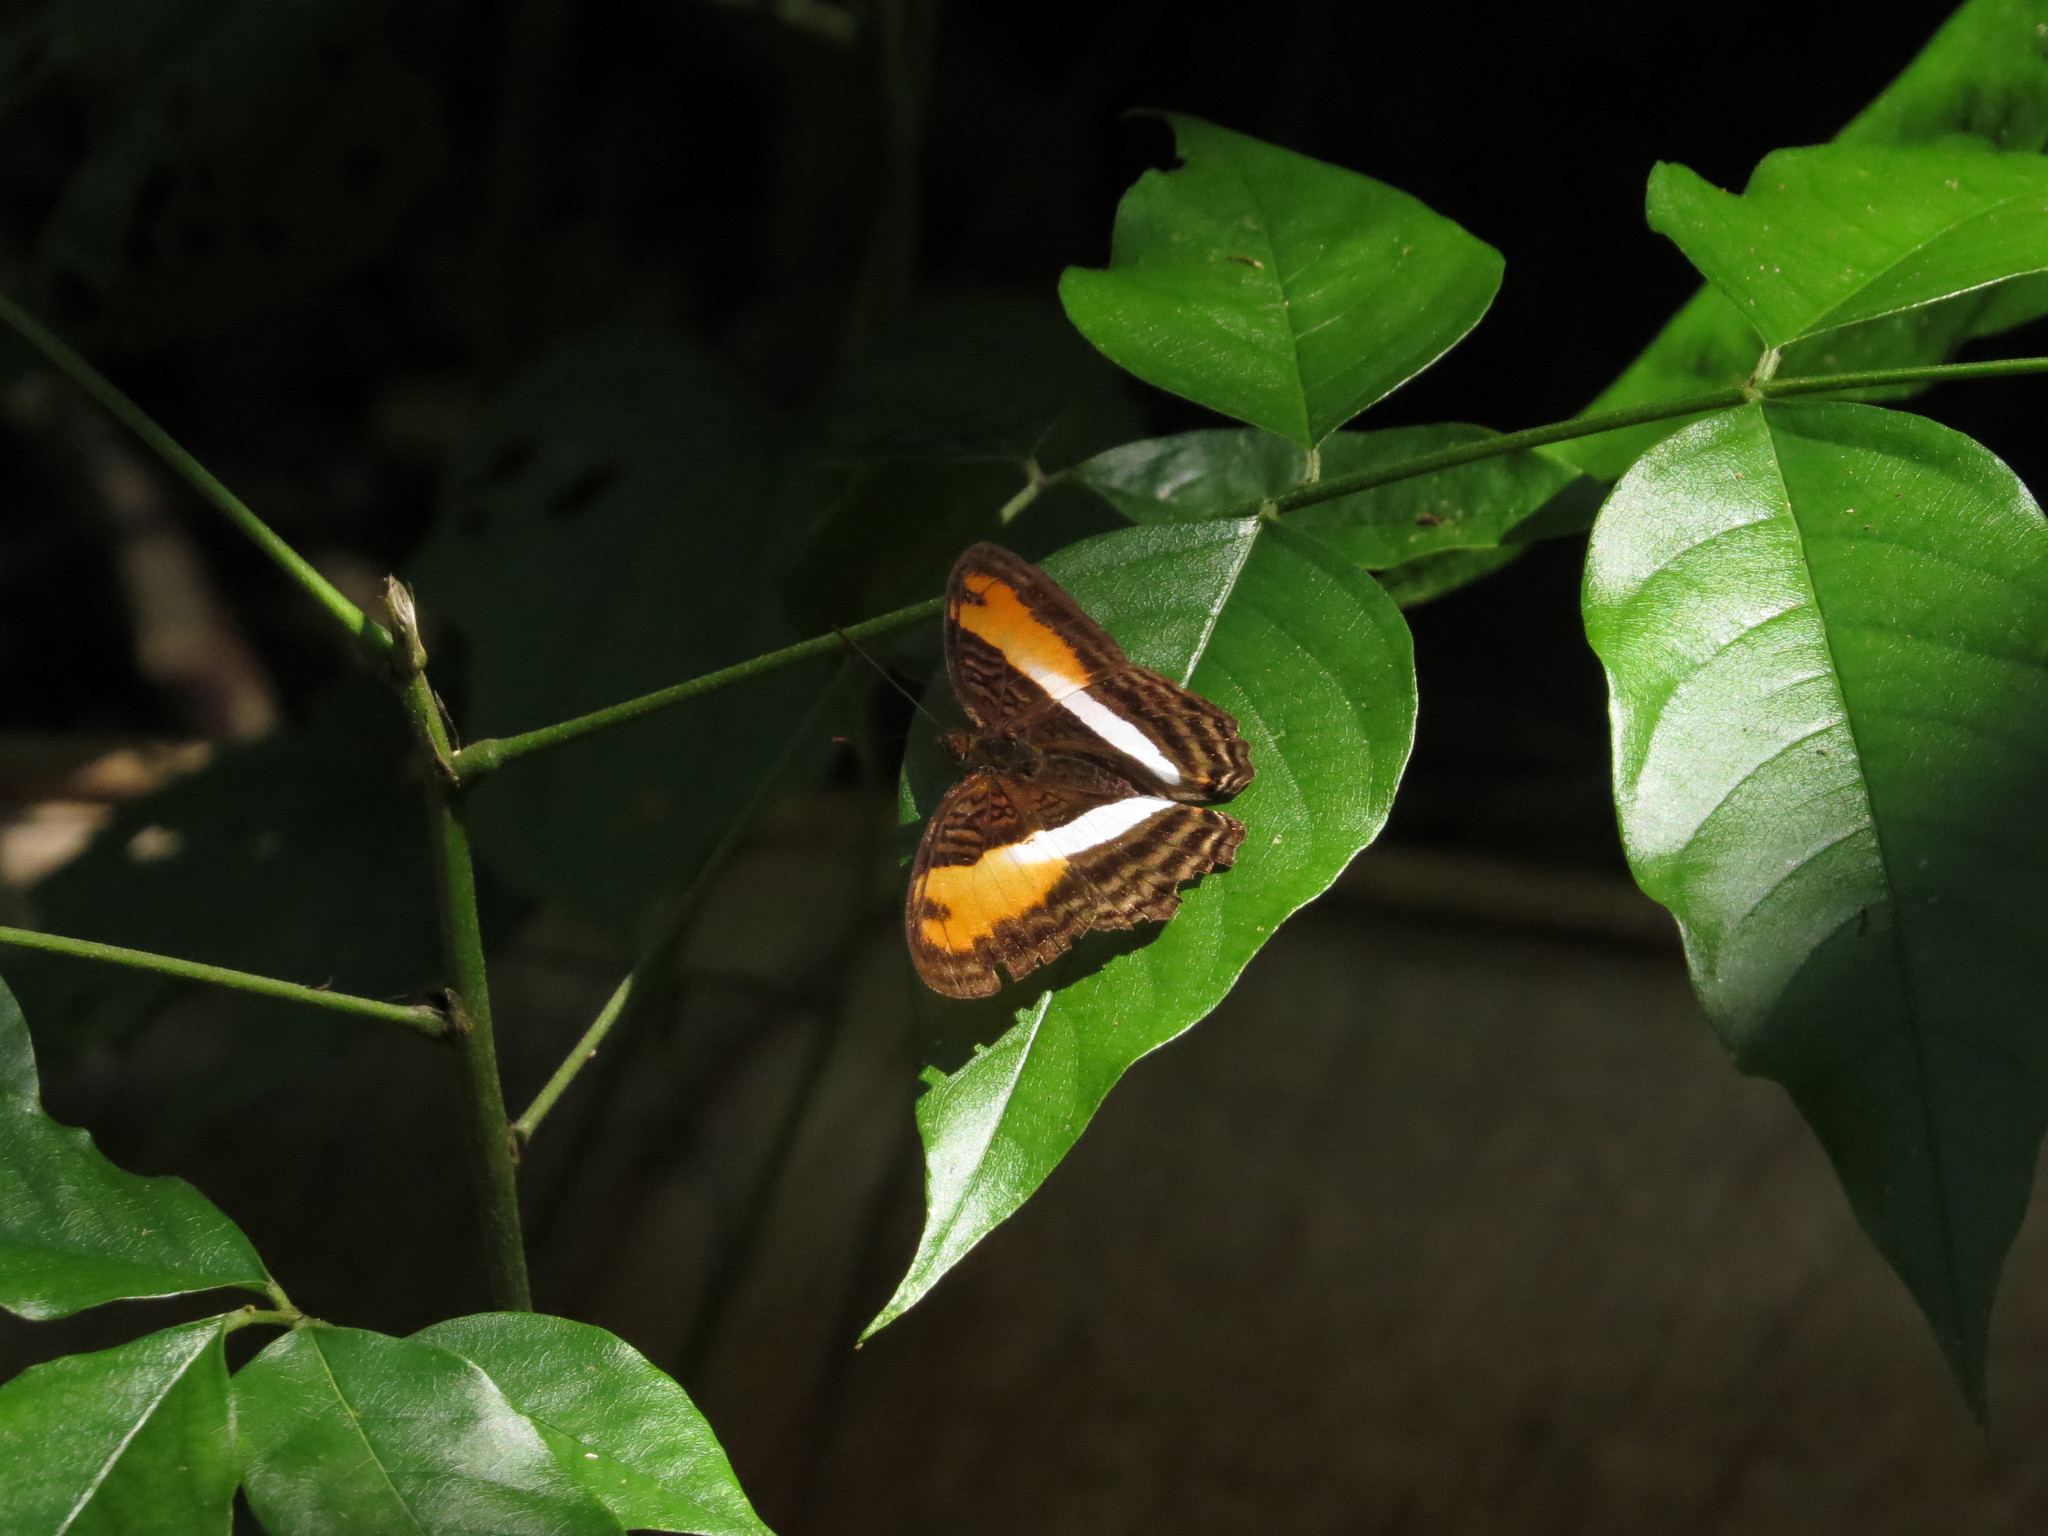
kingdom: Animalia
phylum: Arthropoda
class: Insecta
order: Lepidoptera
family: Nymphalidae
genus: Limenitis
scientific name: Limenitis cocala
